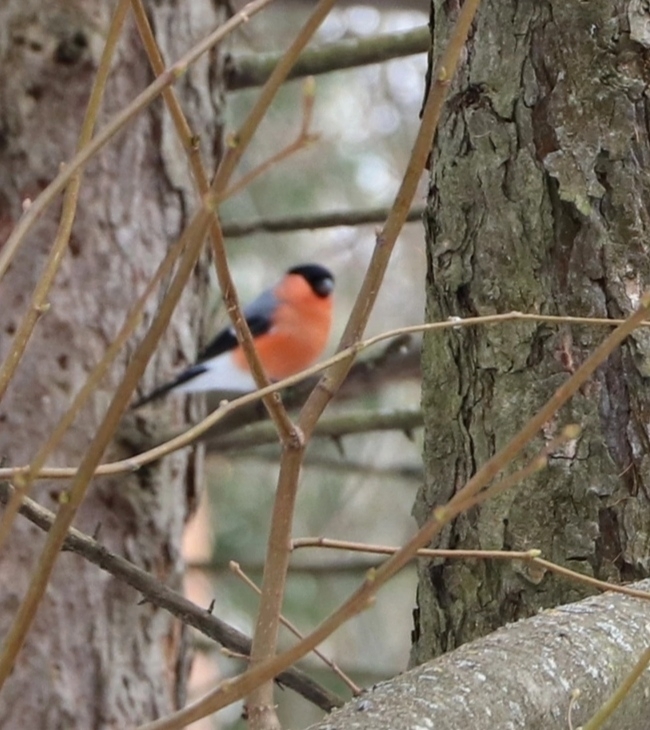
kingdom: Animalia
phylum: Chordata
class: Aves
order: Passeriformes
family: Fringillidae
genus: Pyrrhula
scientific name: Pyrrhula pyrrhula
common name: Eurasian bullfinch
